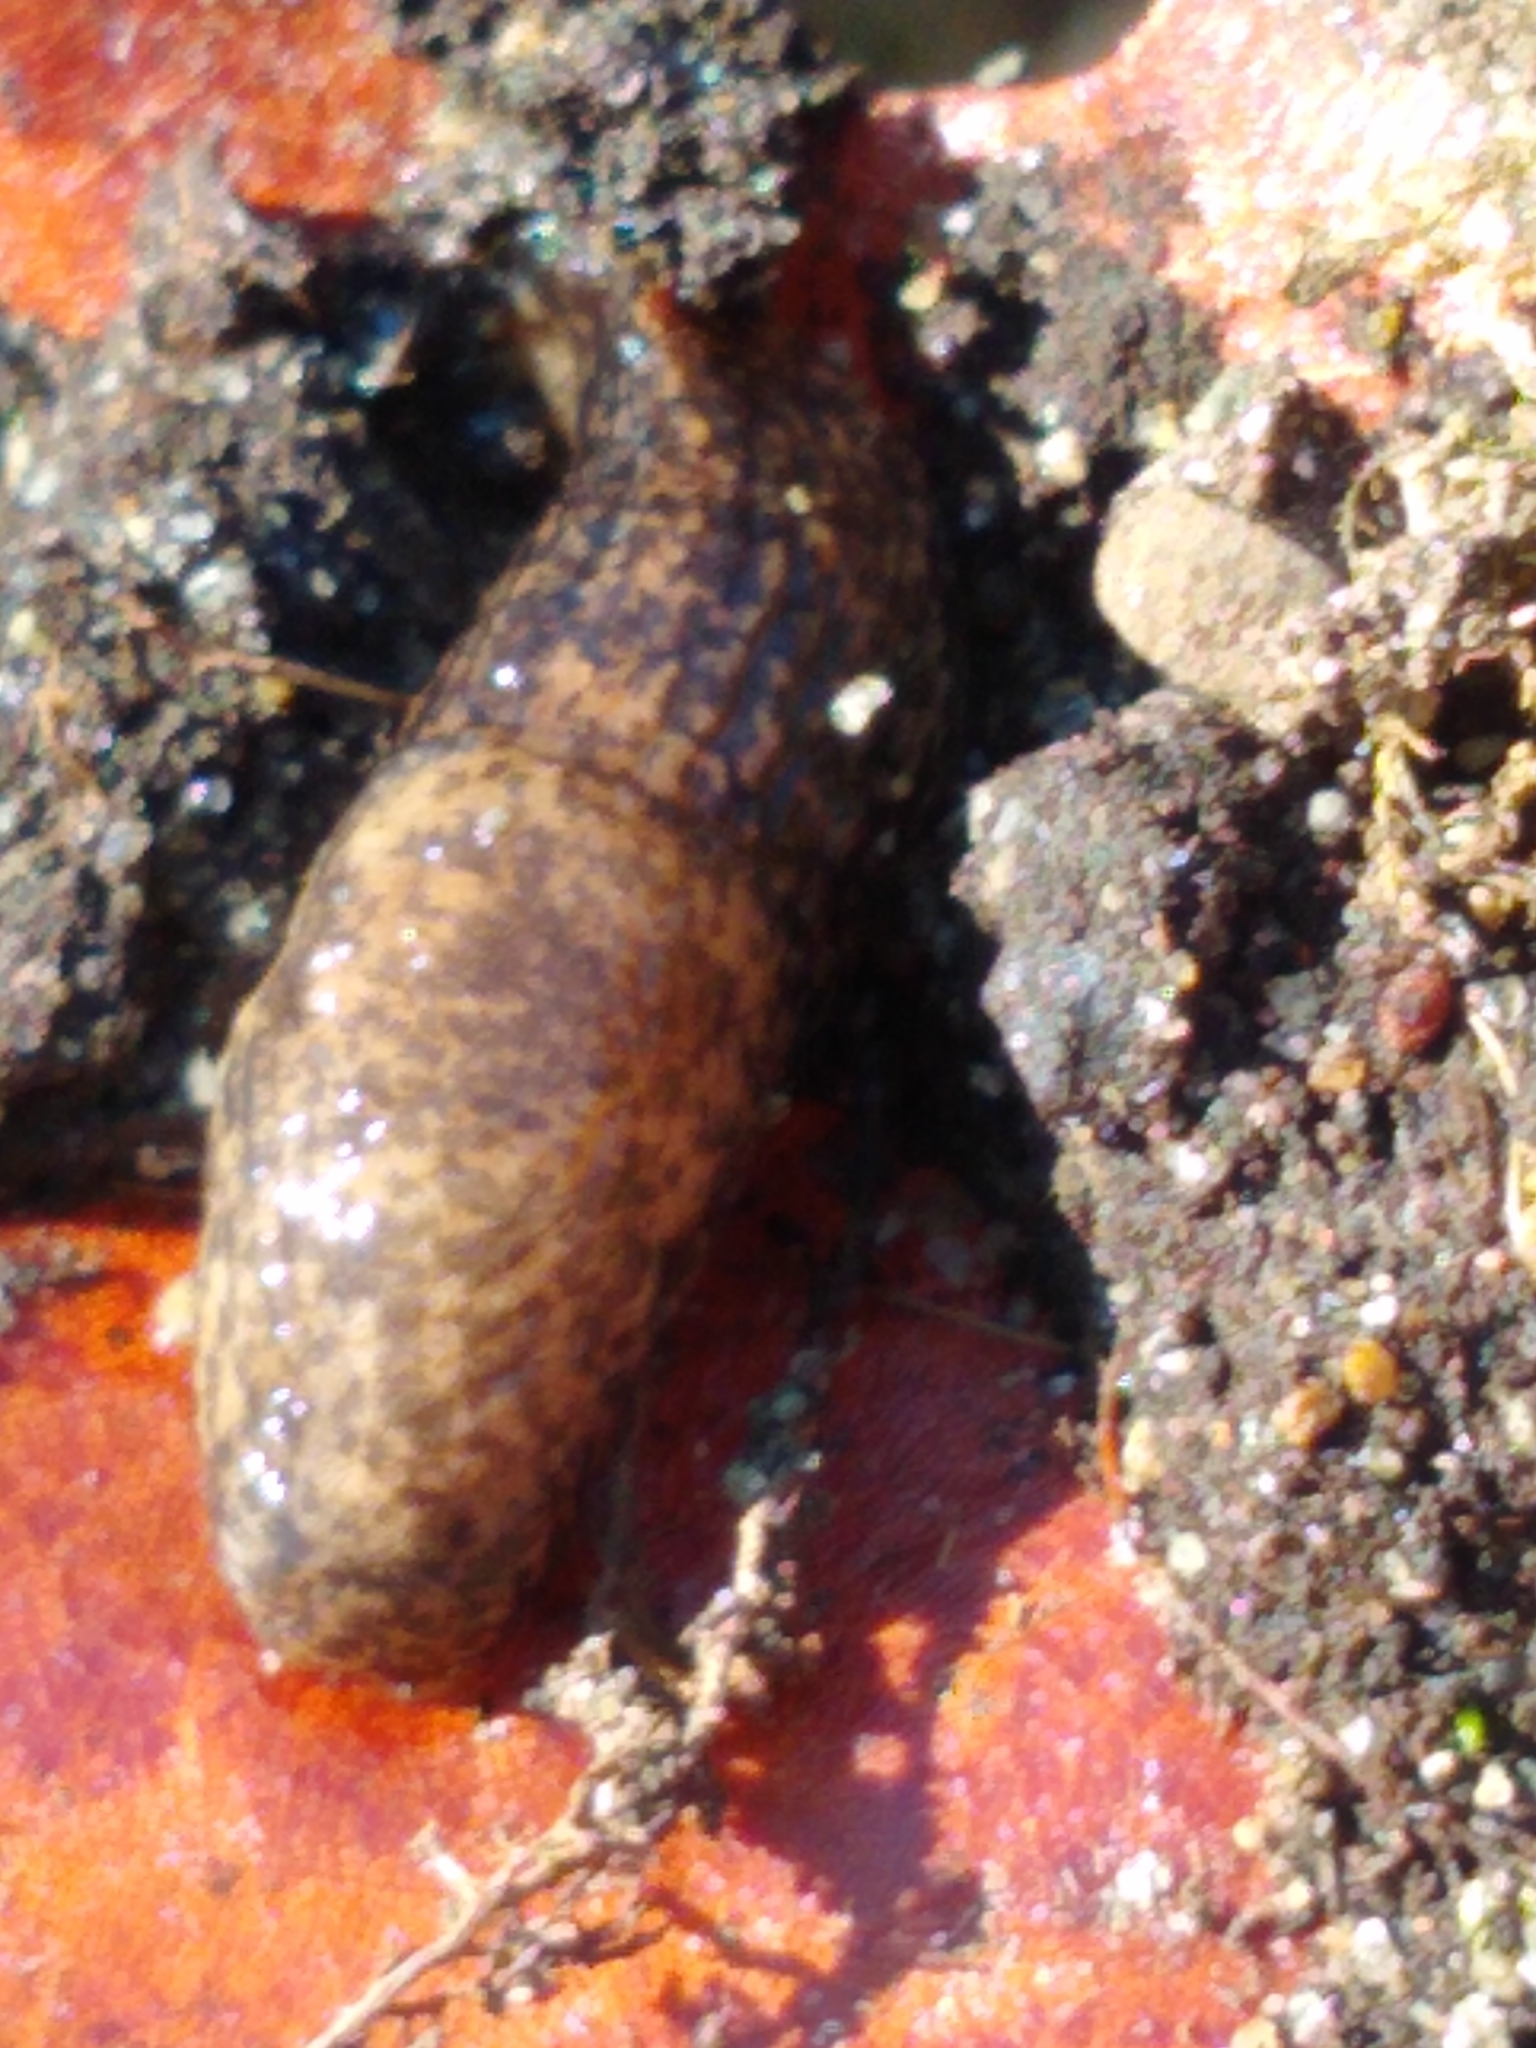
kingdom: Animalia
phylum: Mollusca
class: Gastropoda
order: Stylommatophora
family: Agriolimacidae
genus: Deroceras
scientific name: Deroceras reticulatum
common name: Gray field slug
